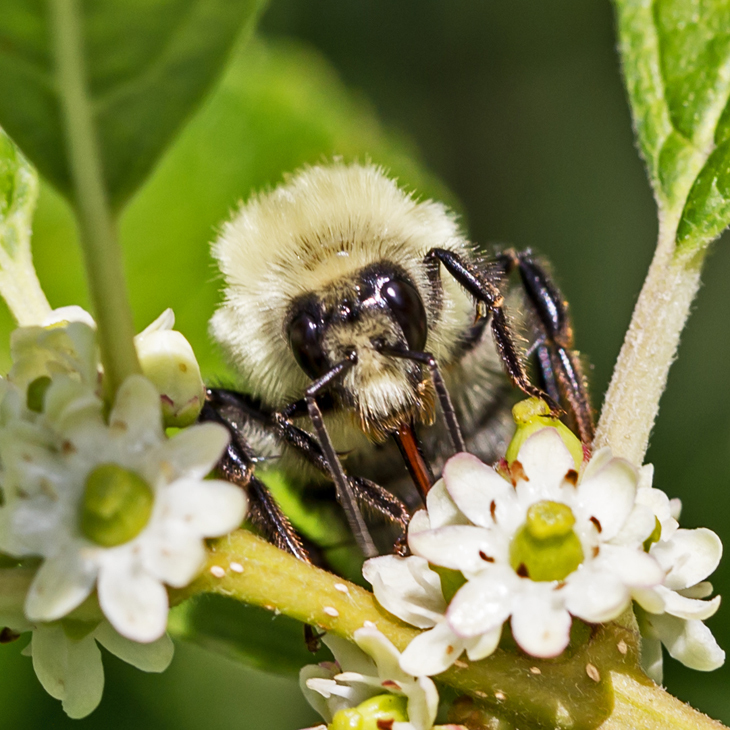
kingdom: Animalia
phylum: Arthropoda
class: Insecta
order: Hymenoptera
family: Apidae
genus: Bombus
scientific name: Bombus bimaculatus
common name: Two-spotted bumble bee
